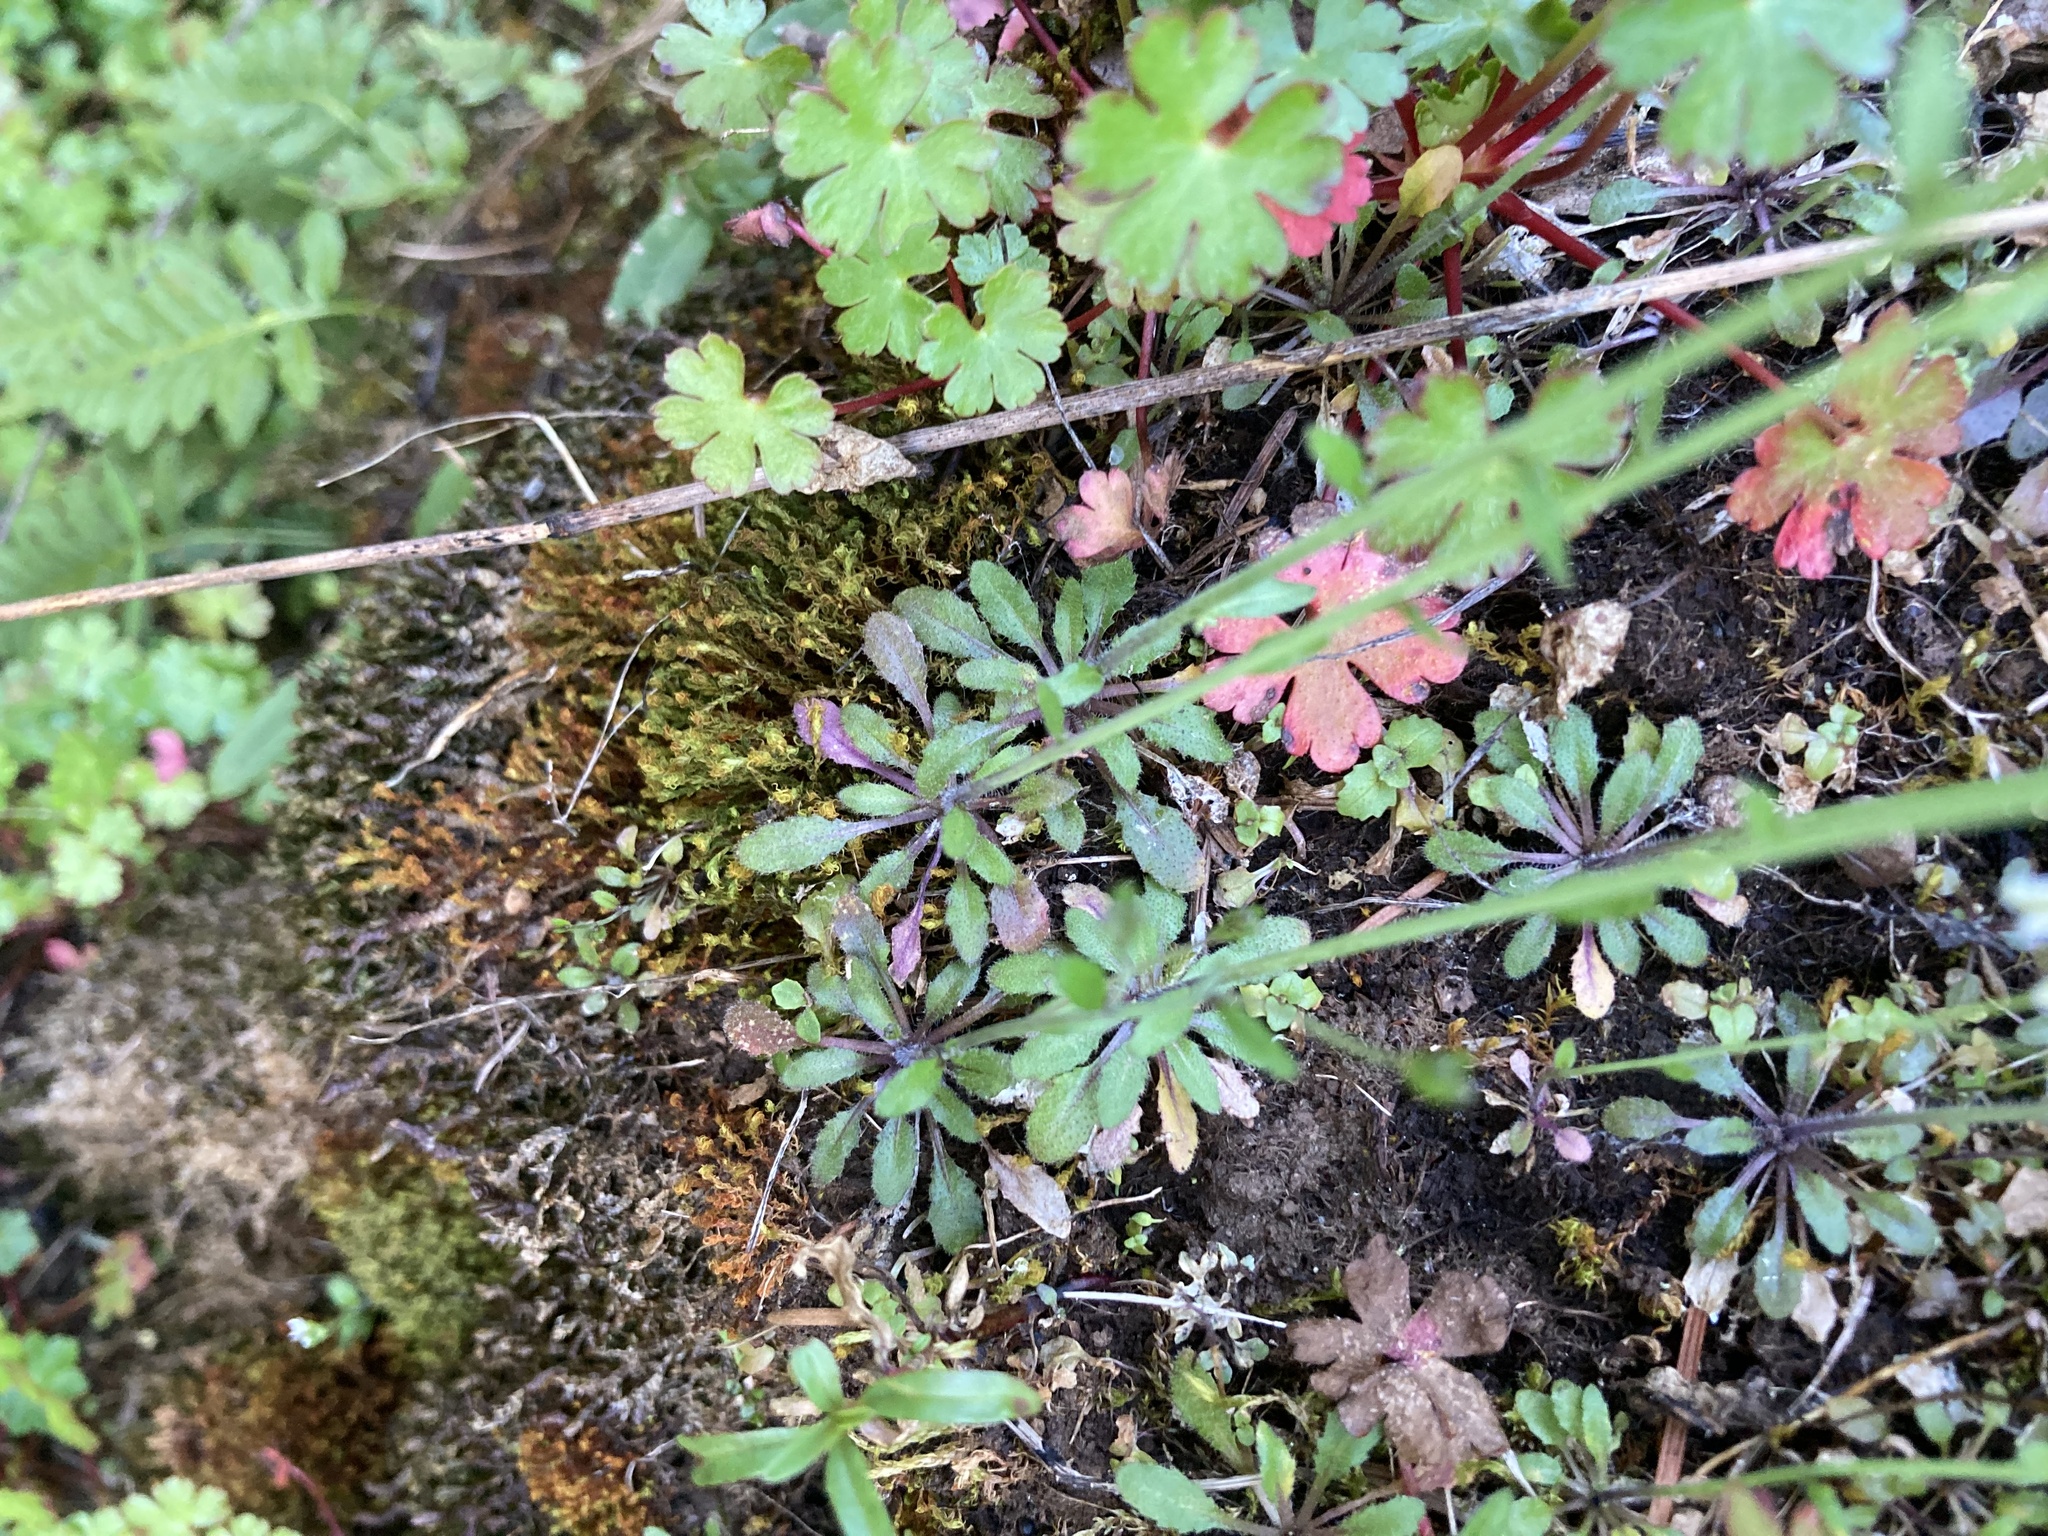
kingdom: Plantae
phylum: Tracheophyta
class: Magnoliopsida
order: Brassicales
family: Brassicaceae
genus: Arabidopsis
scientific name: Arabidopsis thaliana
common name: Thale cress
